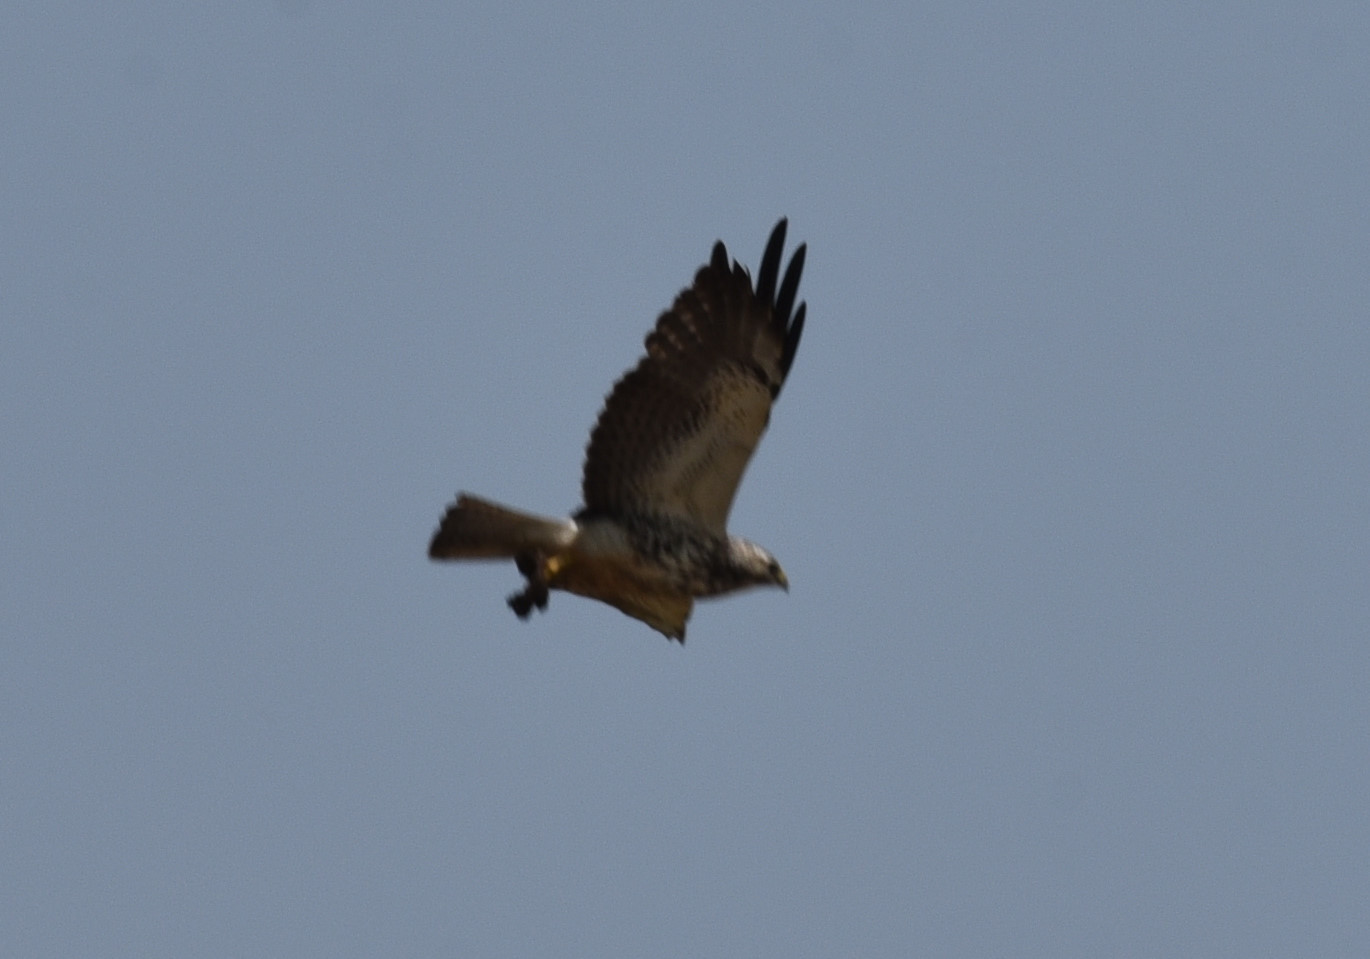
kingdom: Animalia
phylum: Chordata
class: Aves
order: Accipitriformes
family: Accipitridae
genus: Buteo
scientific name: Buteo swainsoni
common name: Swainson's hawk
